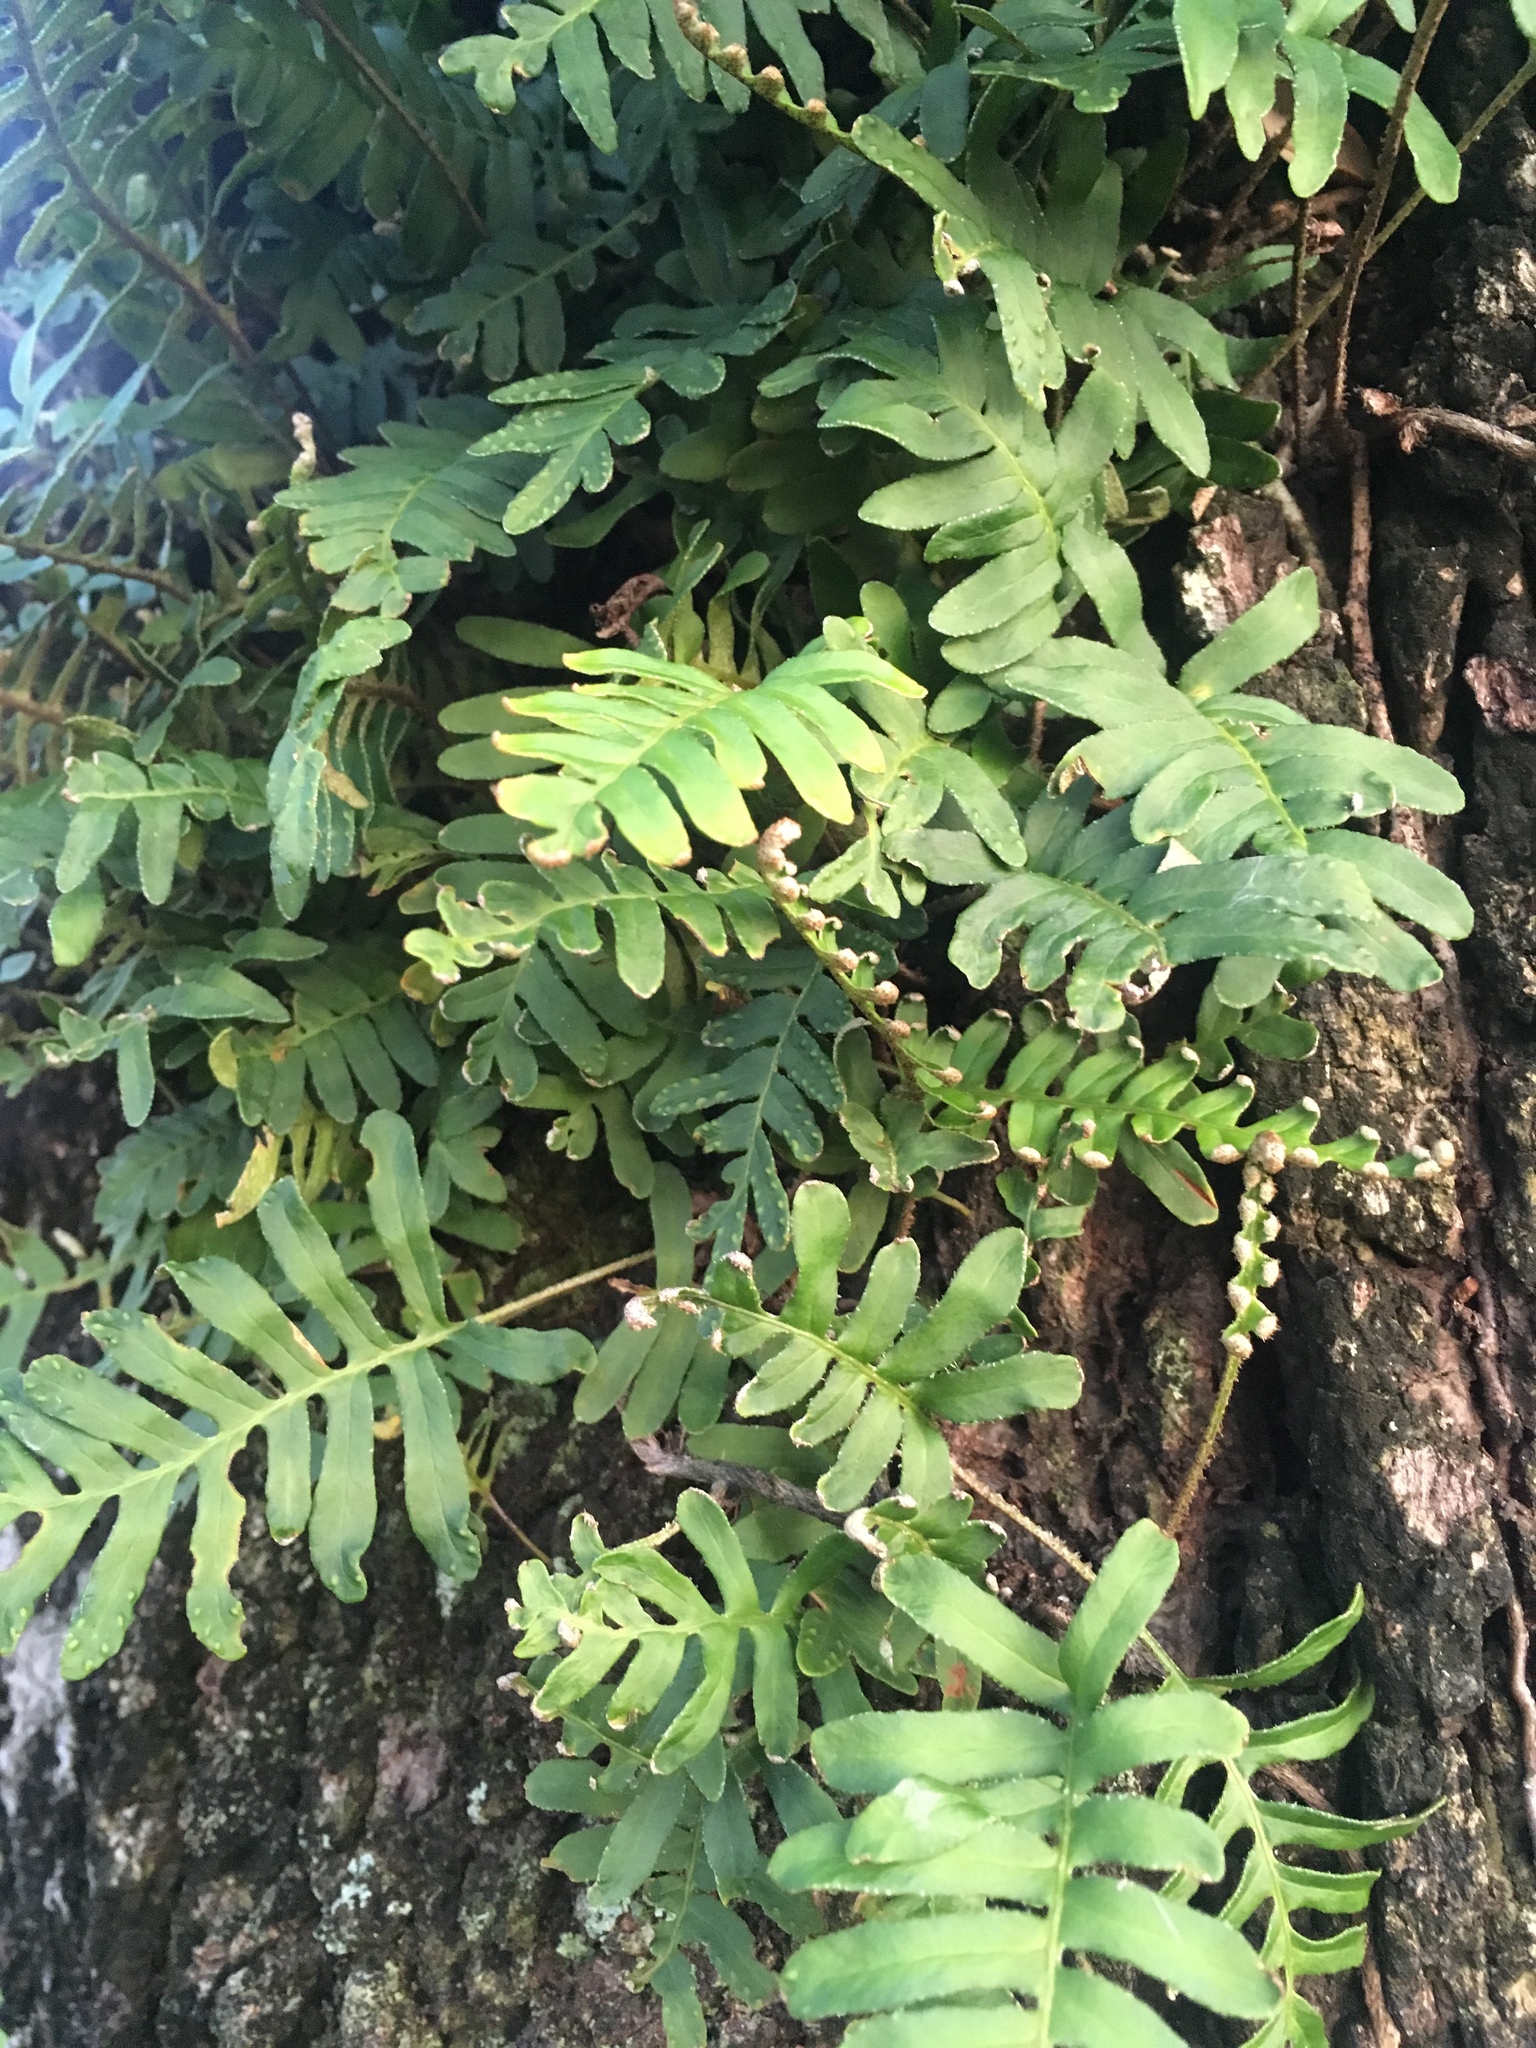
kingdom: Plantae
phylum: Tracheophyta
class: Polypodiopsida
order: Polypodiales
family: Polypodiaceae
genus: Pleopeltis
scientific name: Pleopeltis michauxiana
